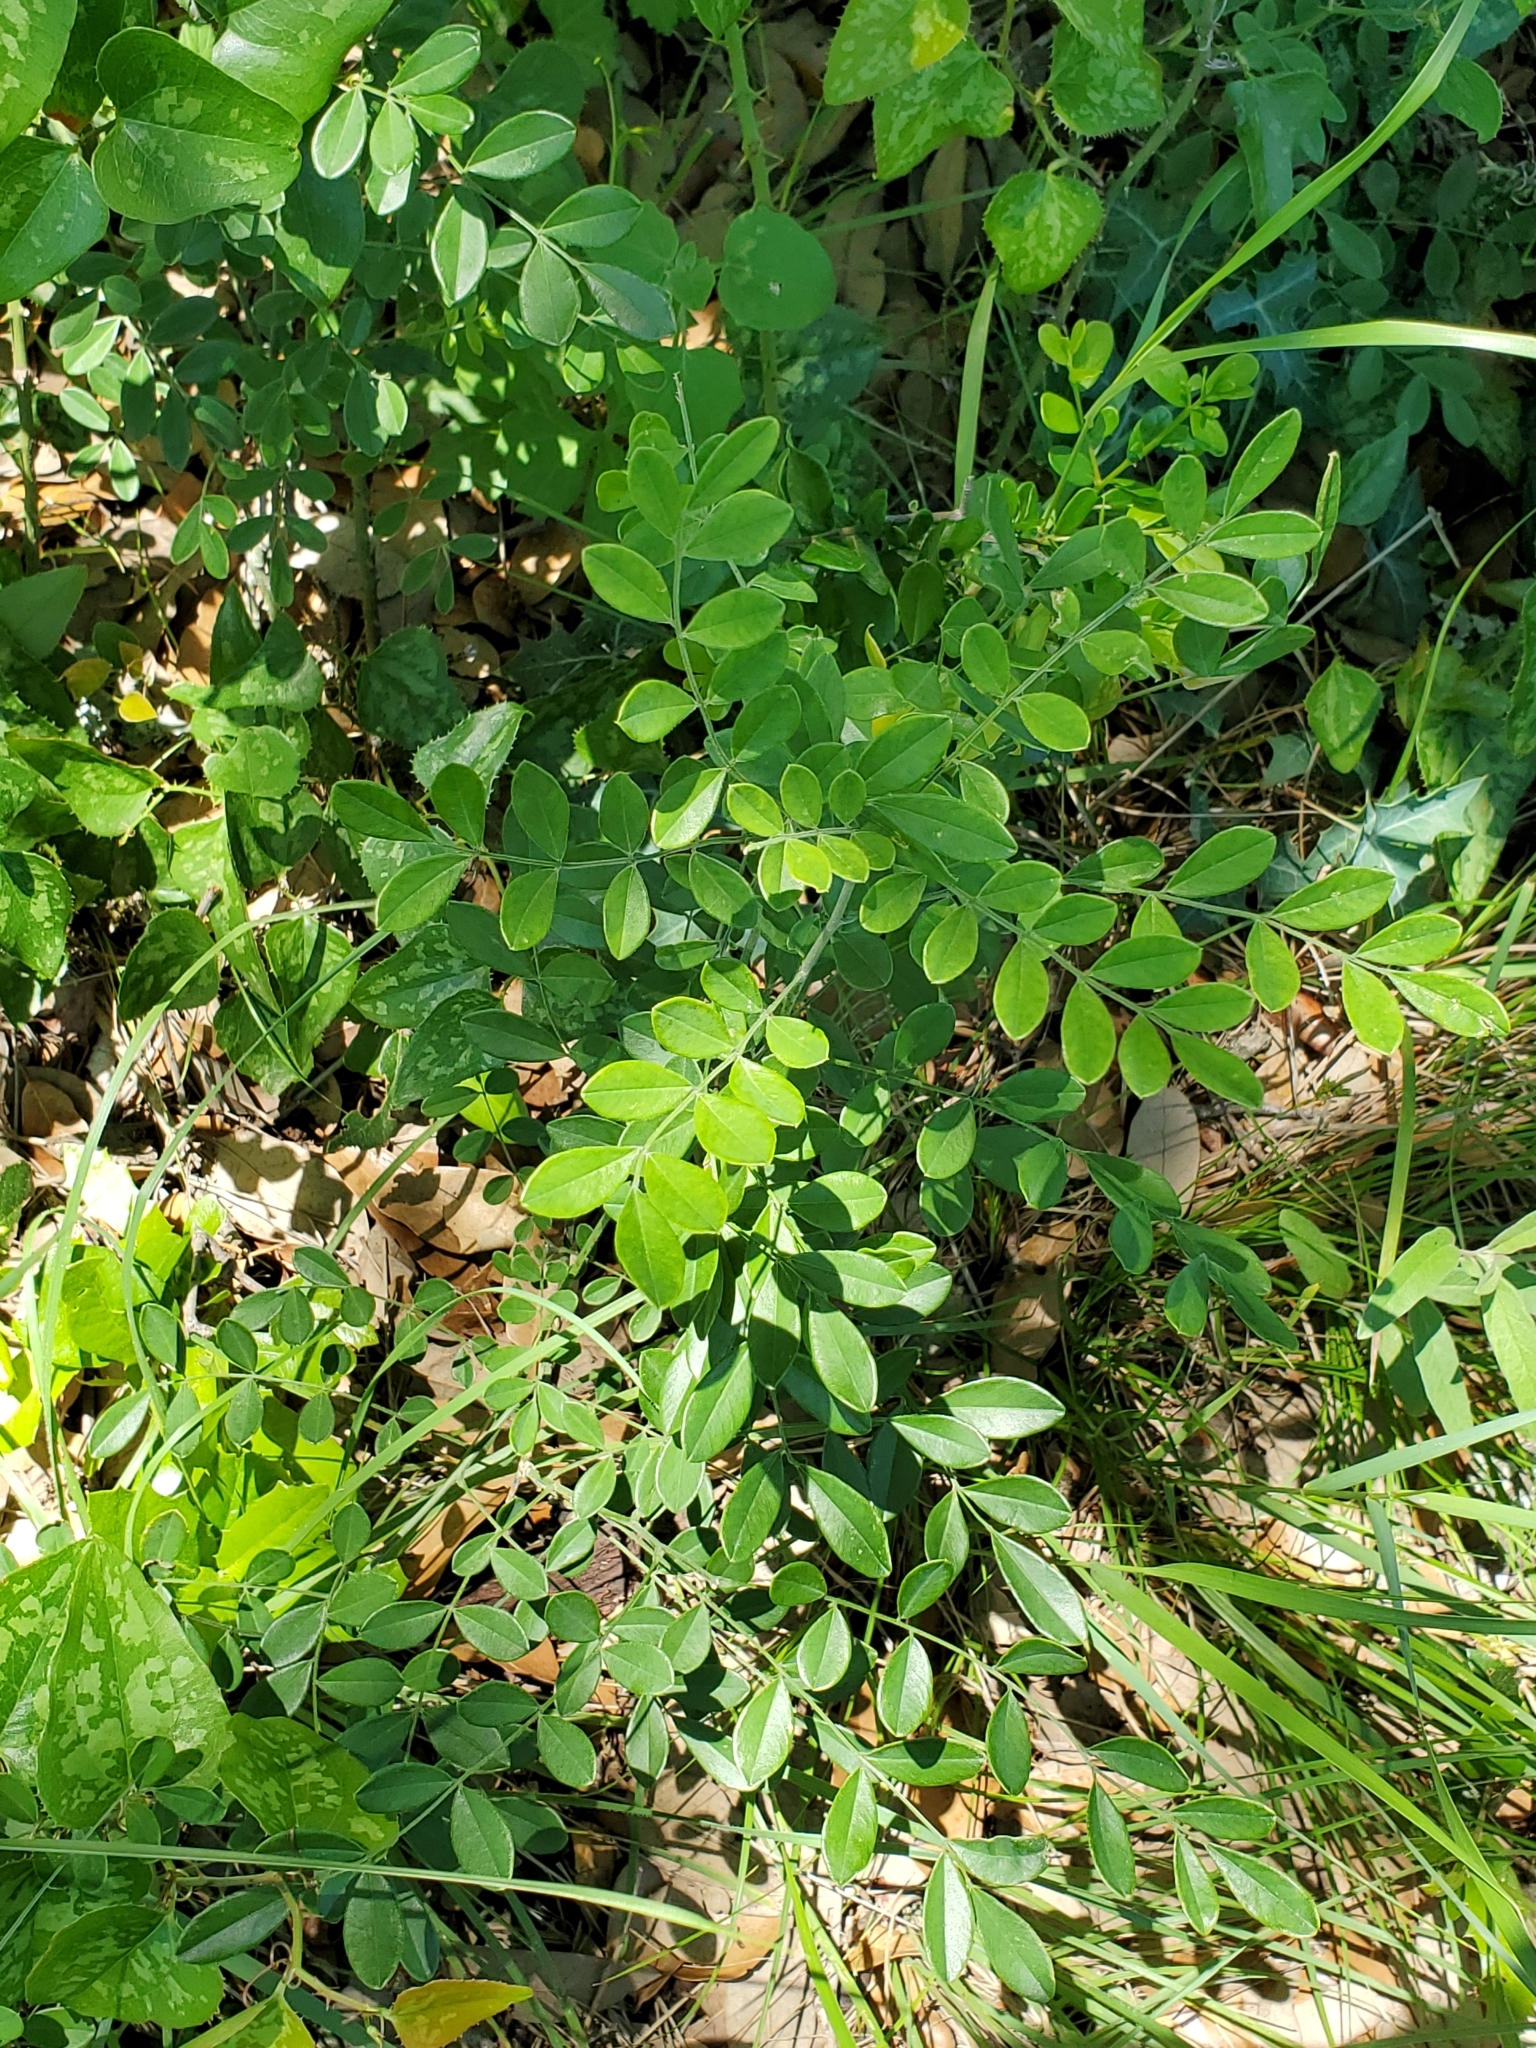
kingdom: Plantae
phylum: Tracheophyta
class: Magnoliopsida
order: Fabales
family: Fabaceae
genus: Styphnolobium
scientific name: Styphnolobium affine
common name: Texas sophora
